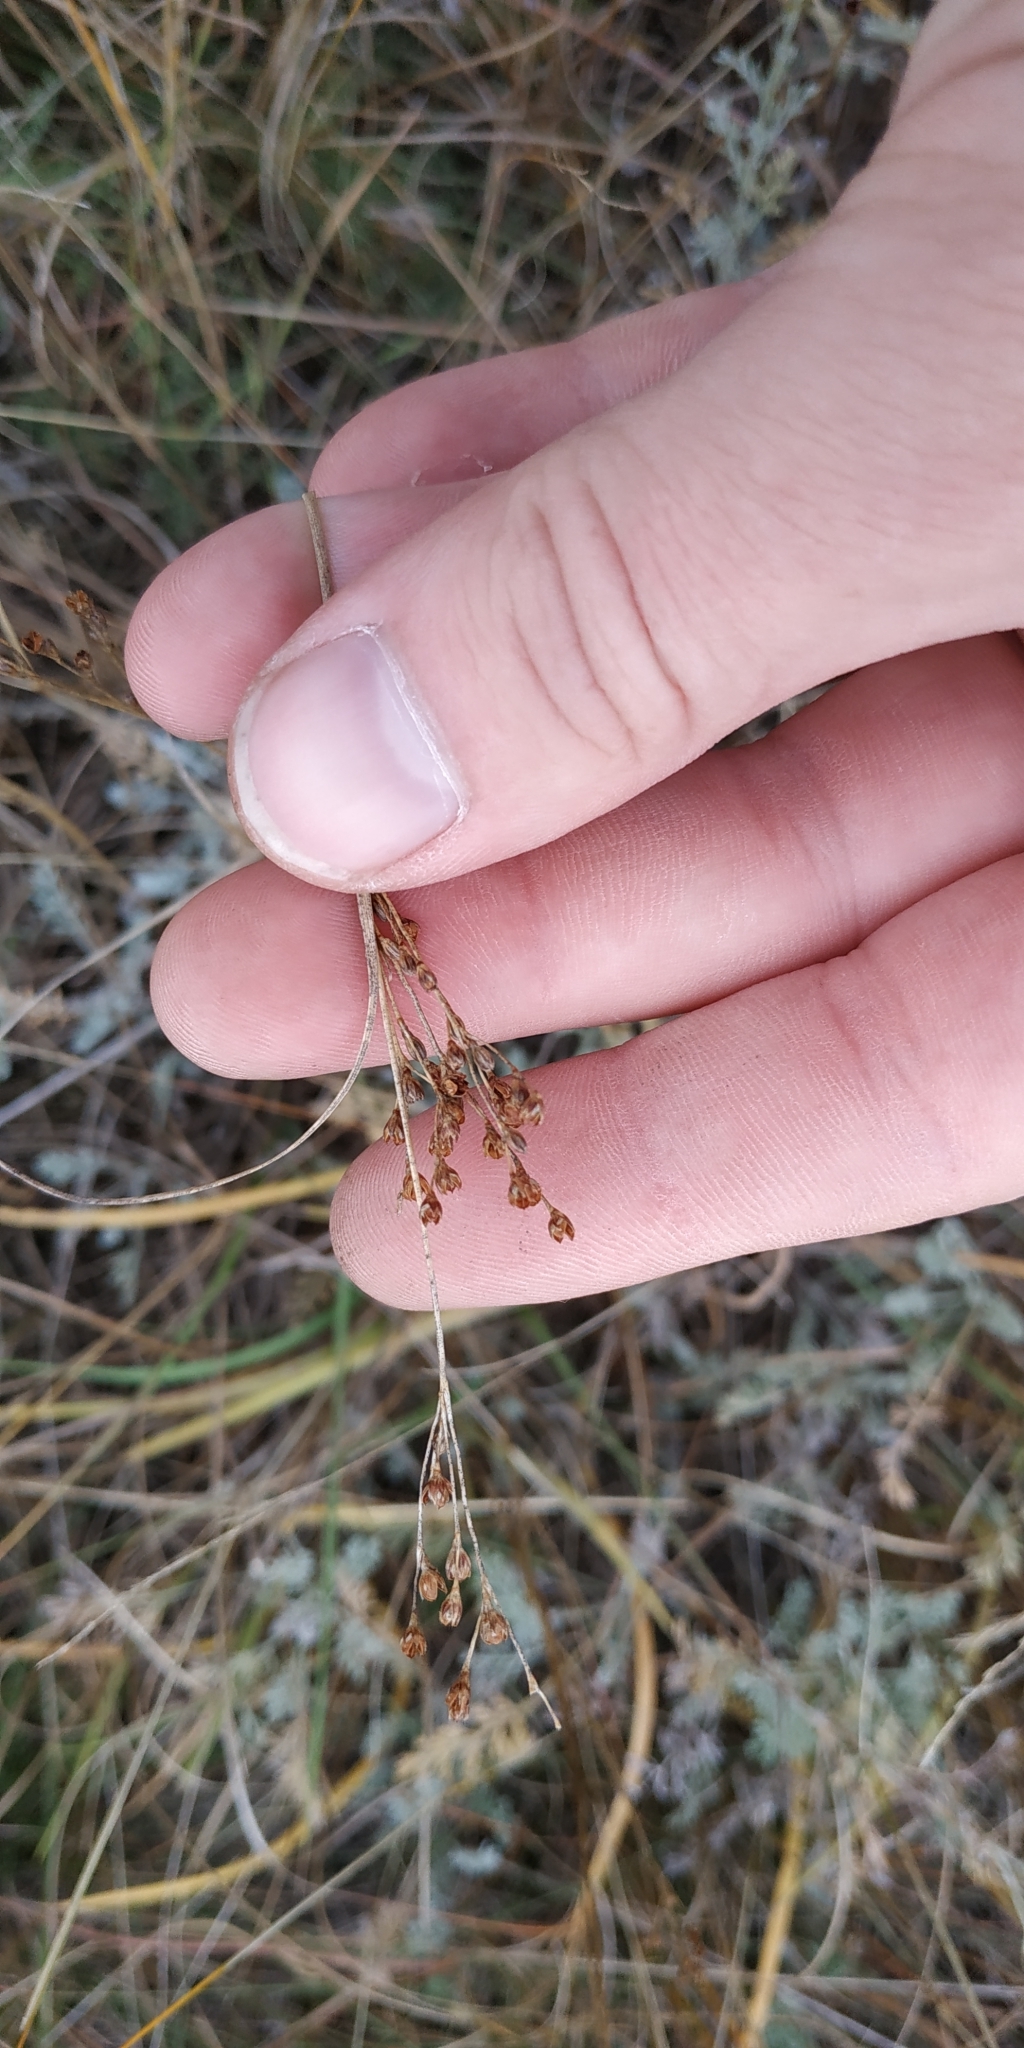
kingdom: Plantae
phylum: Tracheophyta
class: Liliopsida
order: Poales
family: Juncaceae
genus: Juncus
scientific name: Juncus gerardi
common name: Saltmarsh rush
